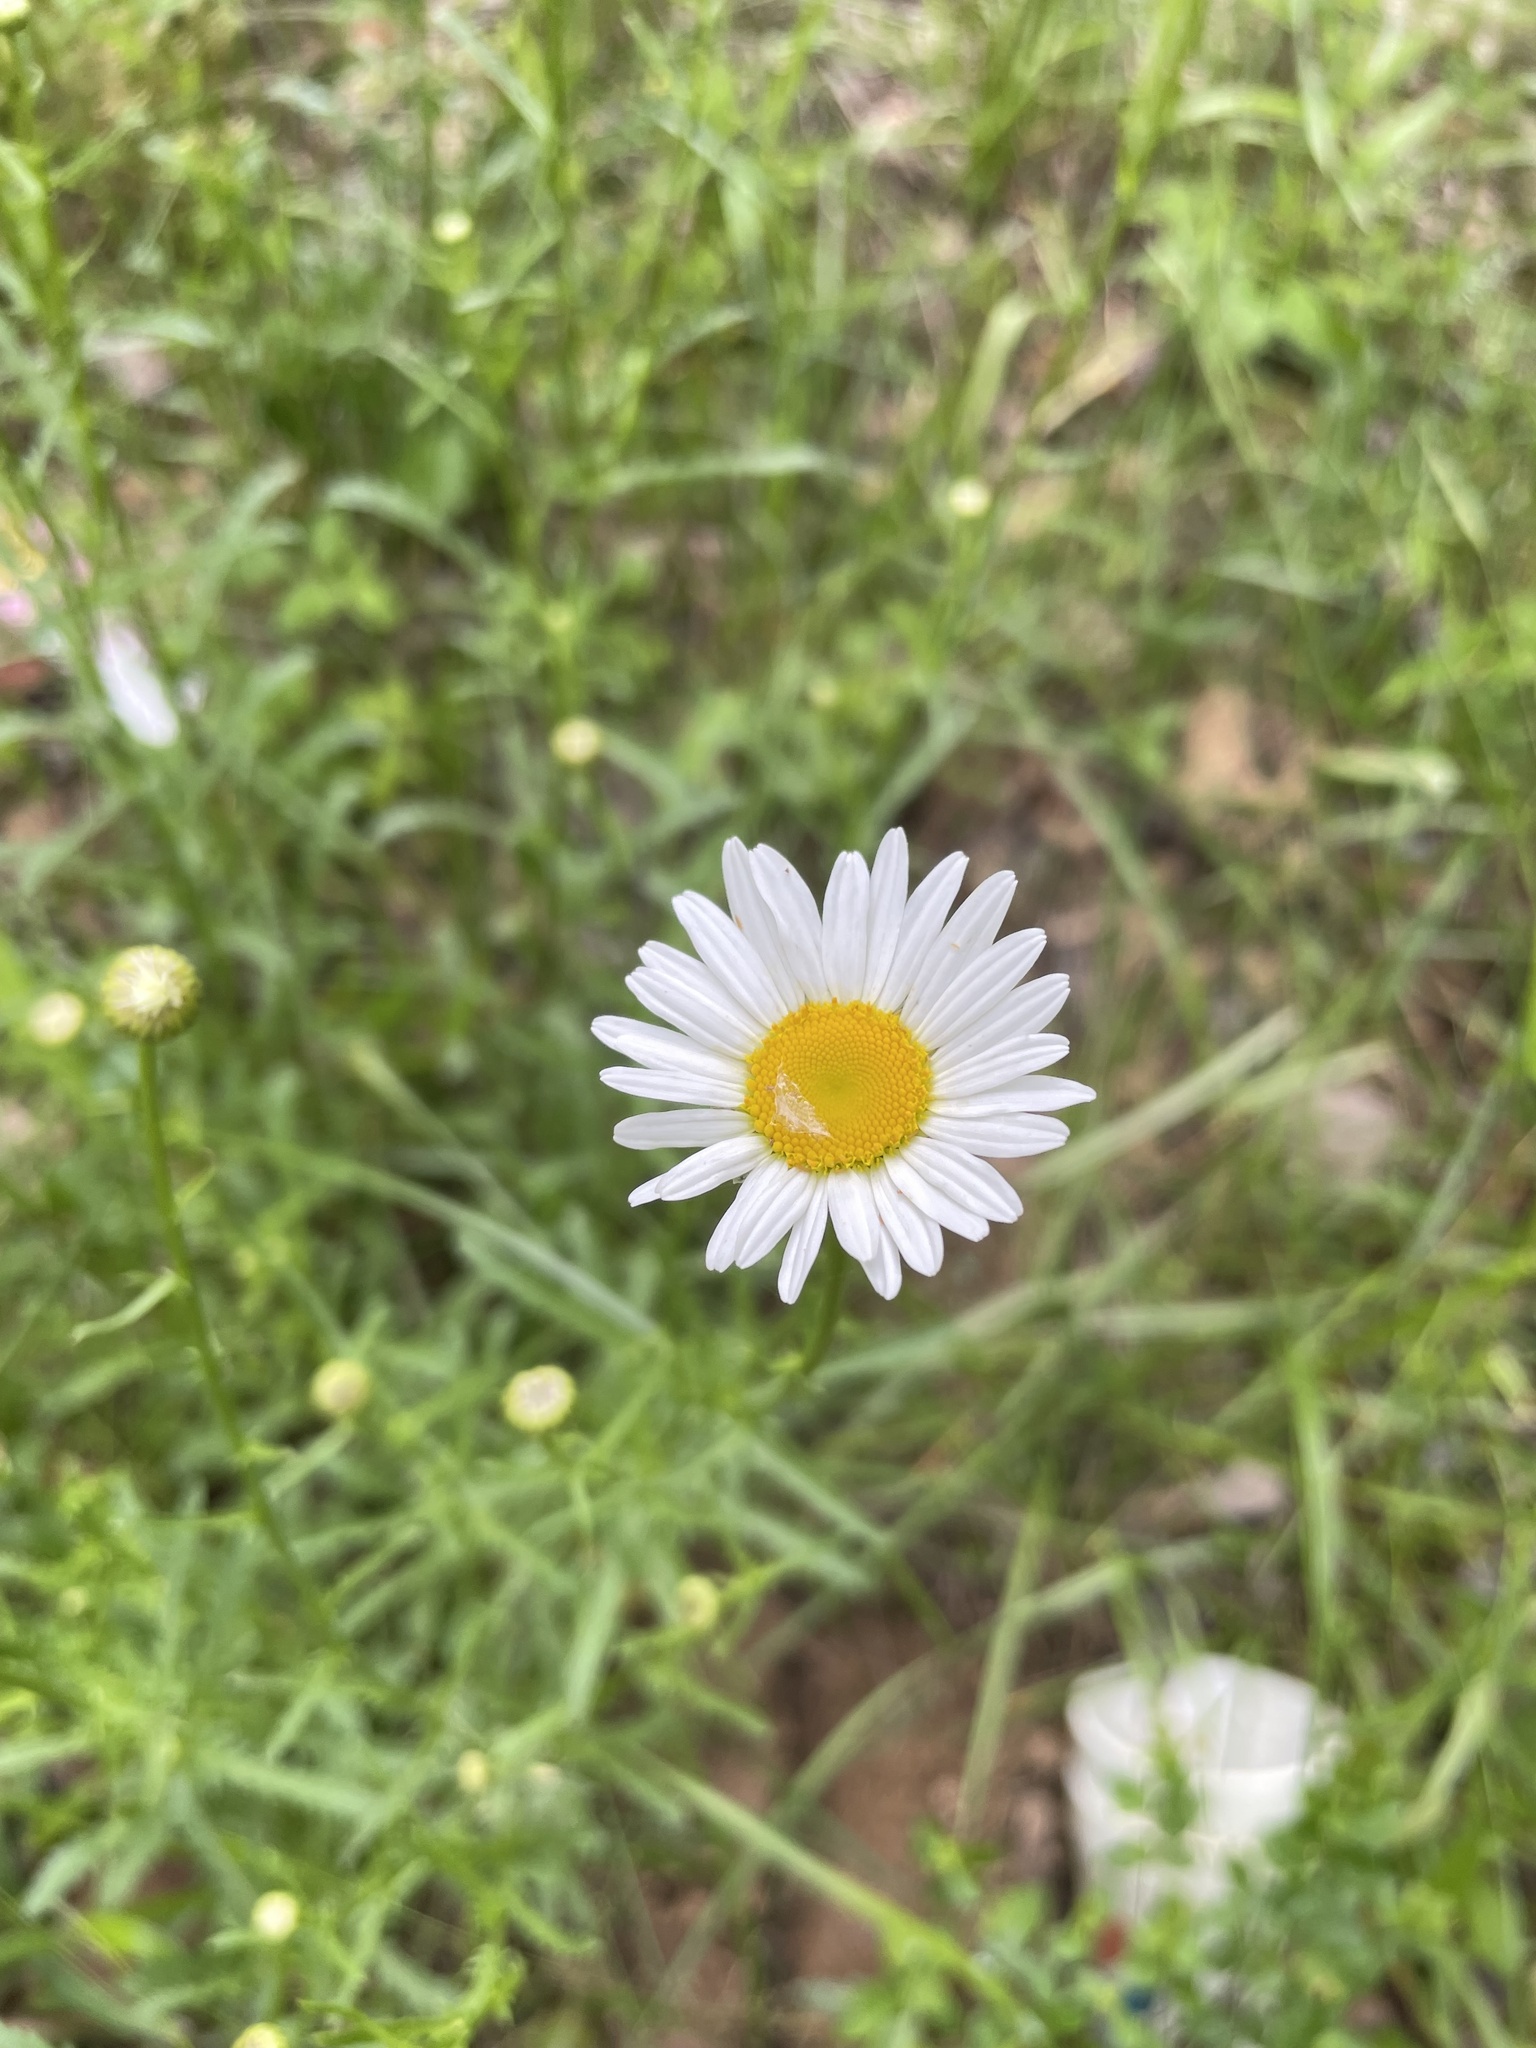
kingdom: Plantae
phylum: Tracheophyta
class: Magnoliopsida
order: Asterales
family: Asteraceae
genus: Leucanthemum
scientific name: Leucanthemum vulgare
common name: Oxeye daisy
